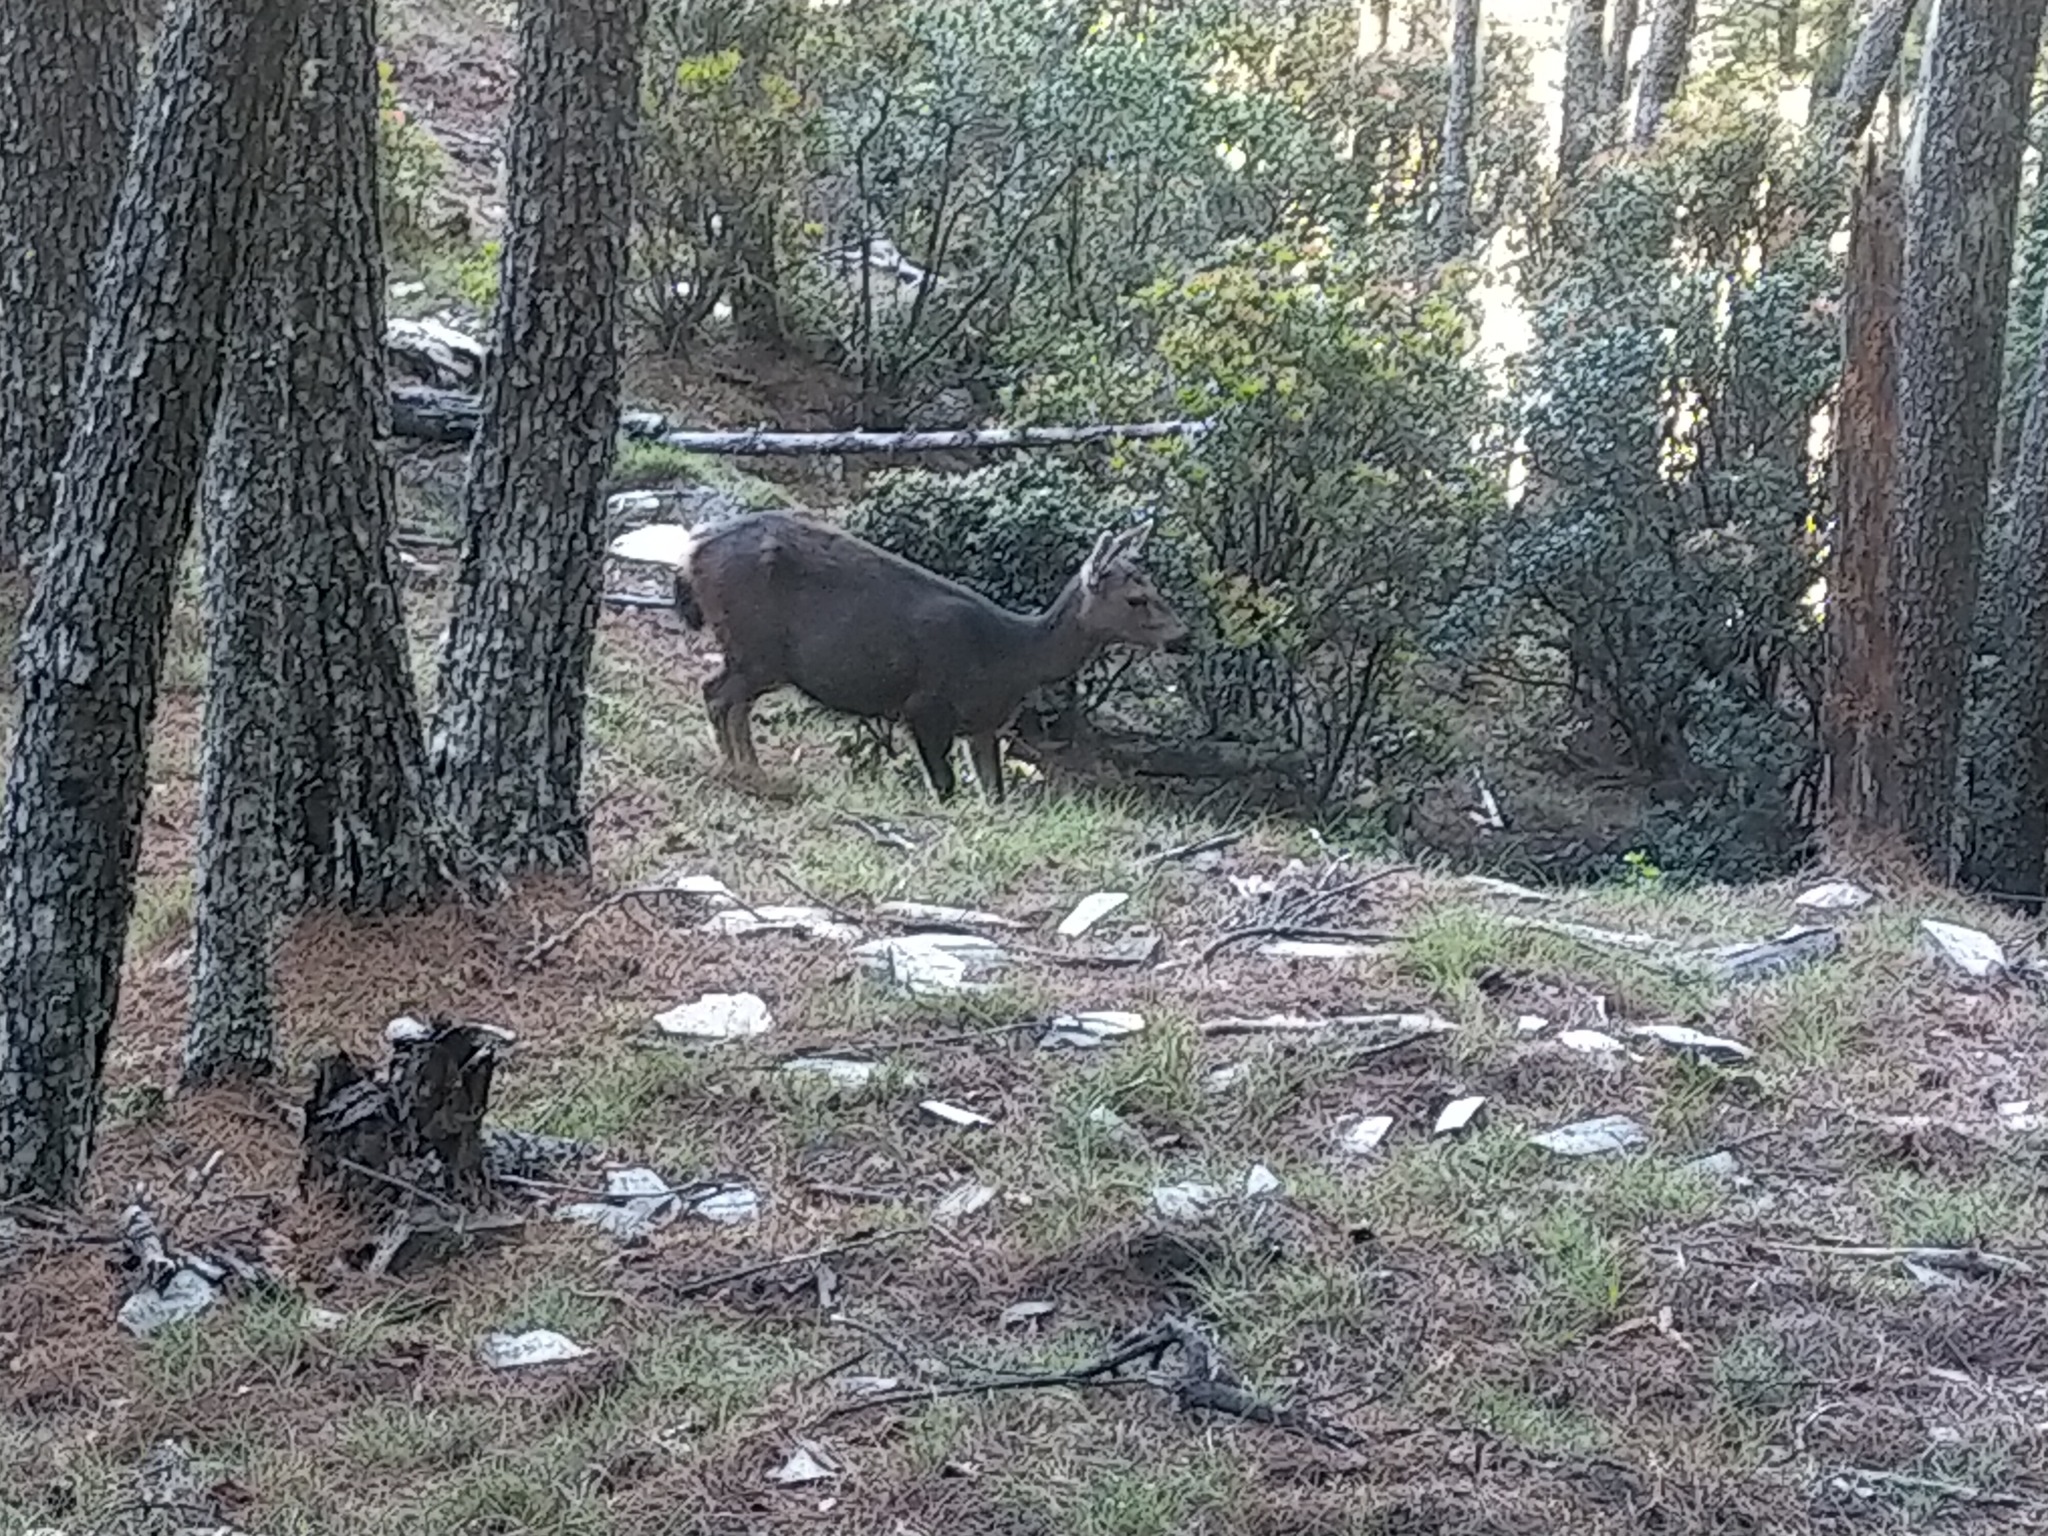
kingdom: Animalia
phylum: Chordata
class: Mammalia
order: Artiodactyla
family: Cervidae
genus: Rusa
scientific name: Rusa unicolor
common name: Sambar
